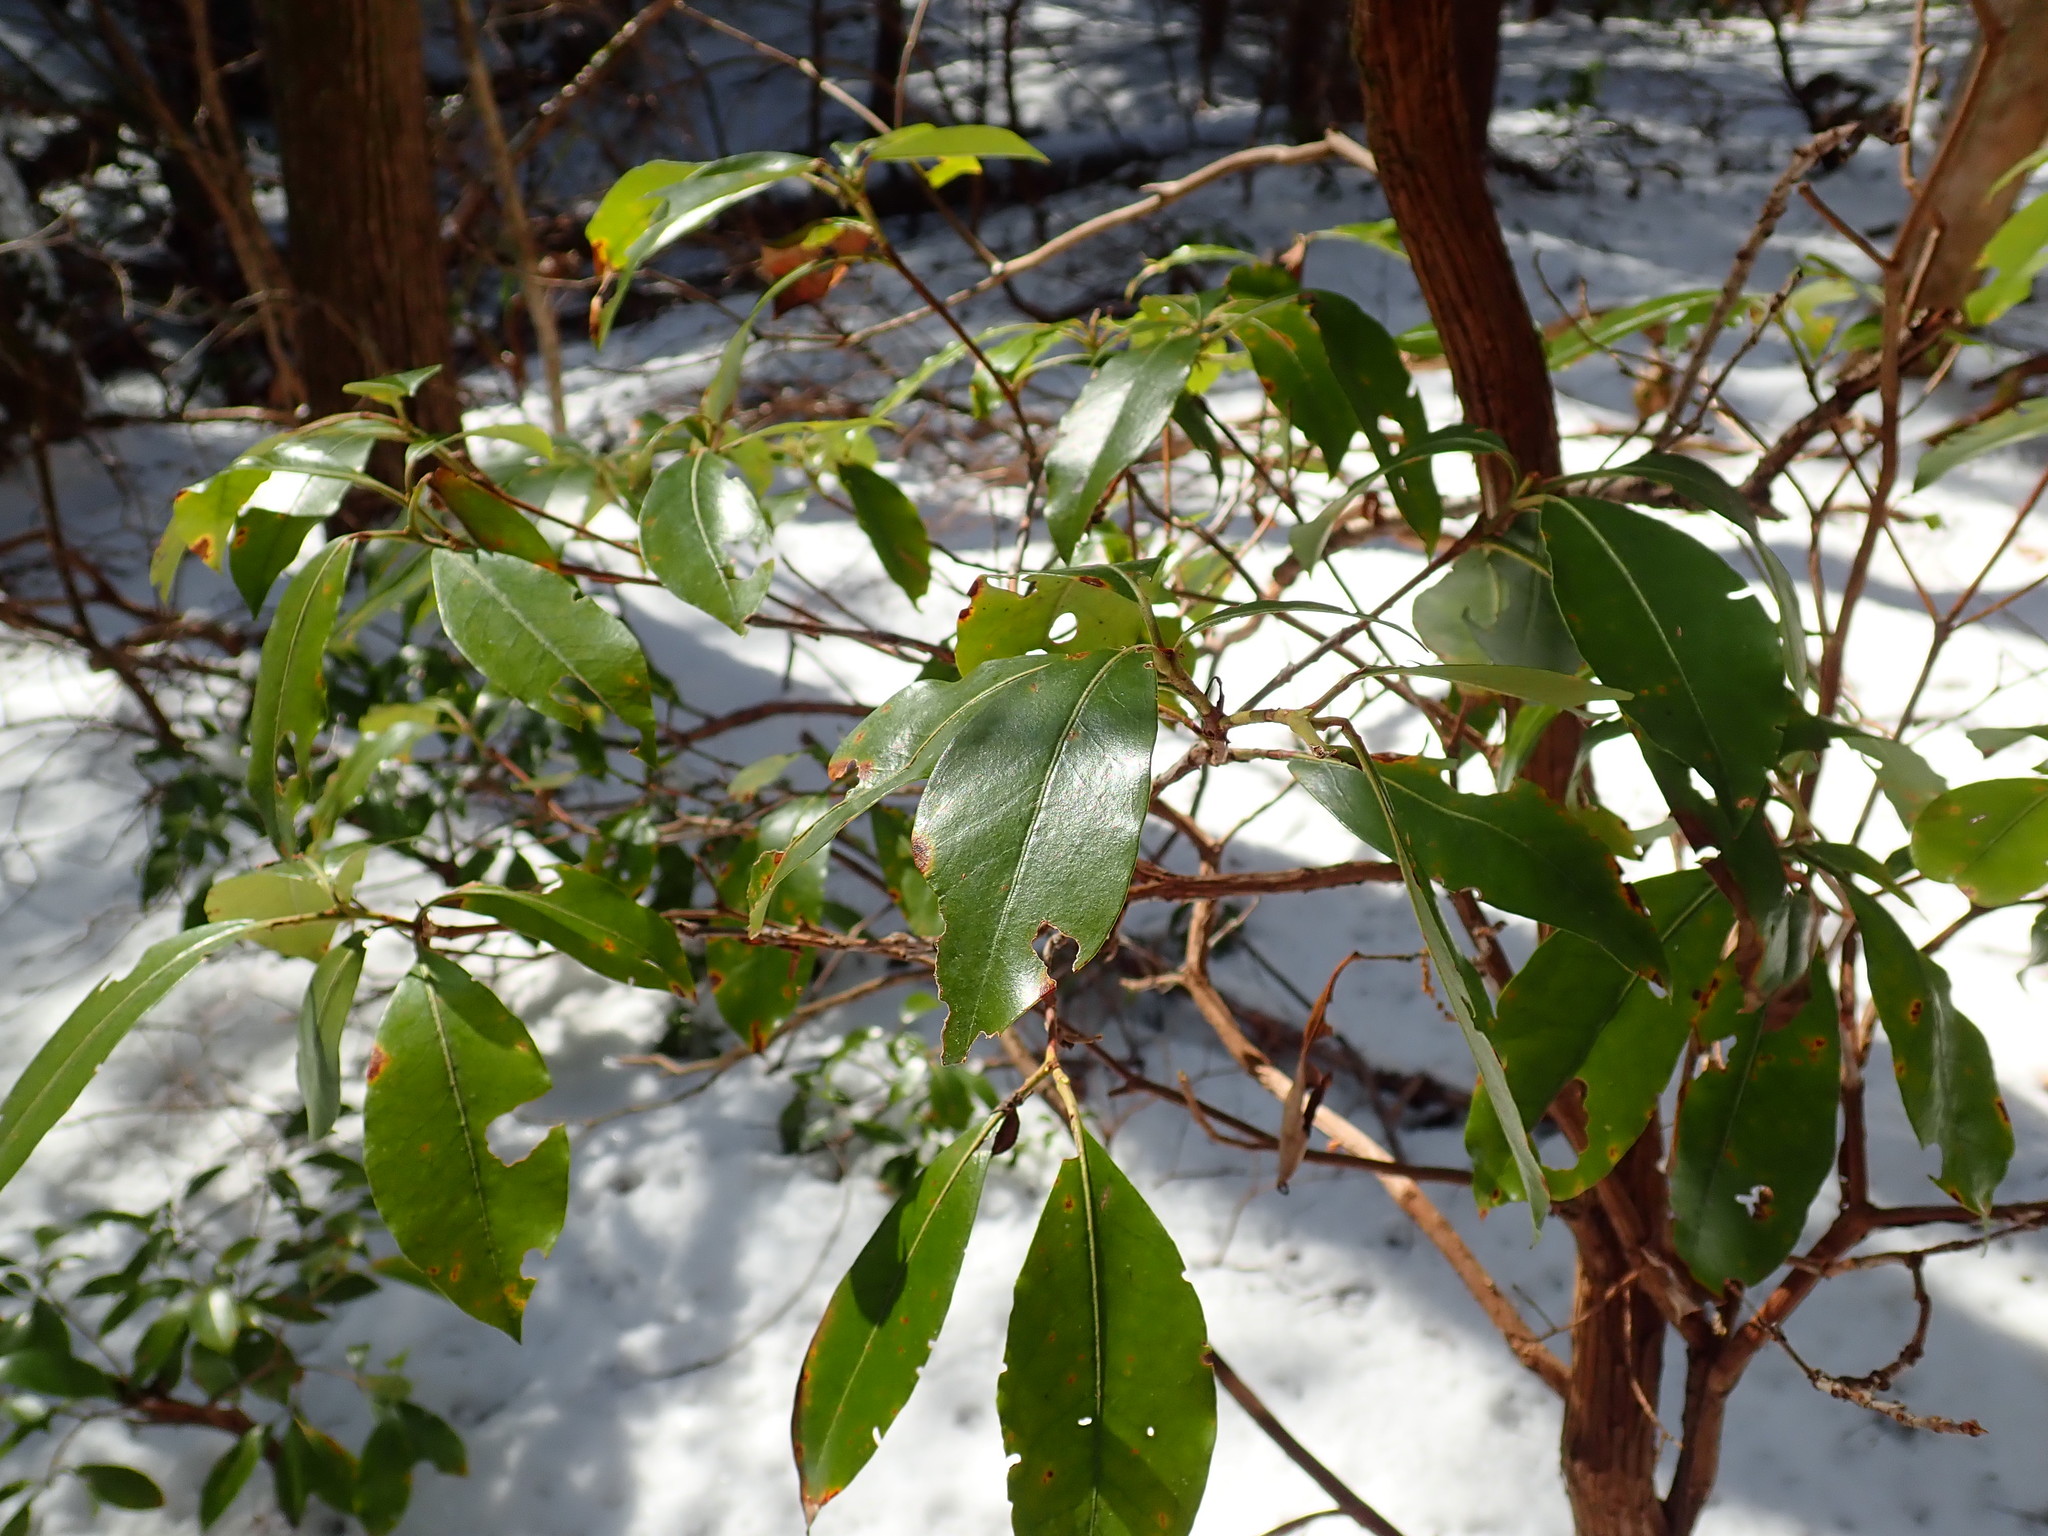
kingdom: Plantae
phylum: Tracheophyta
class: Magnoliopsida
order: Ericales
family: Ericaceae
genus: Kalmia
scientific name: Kalmia latifolia
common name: Mountain-laurel
